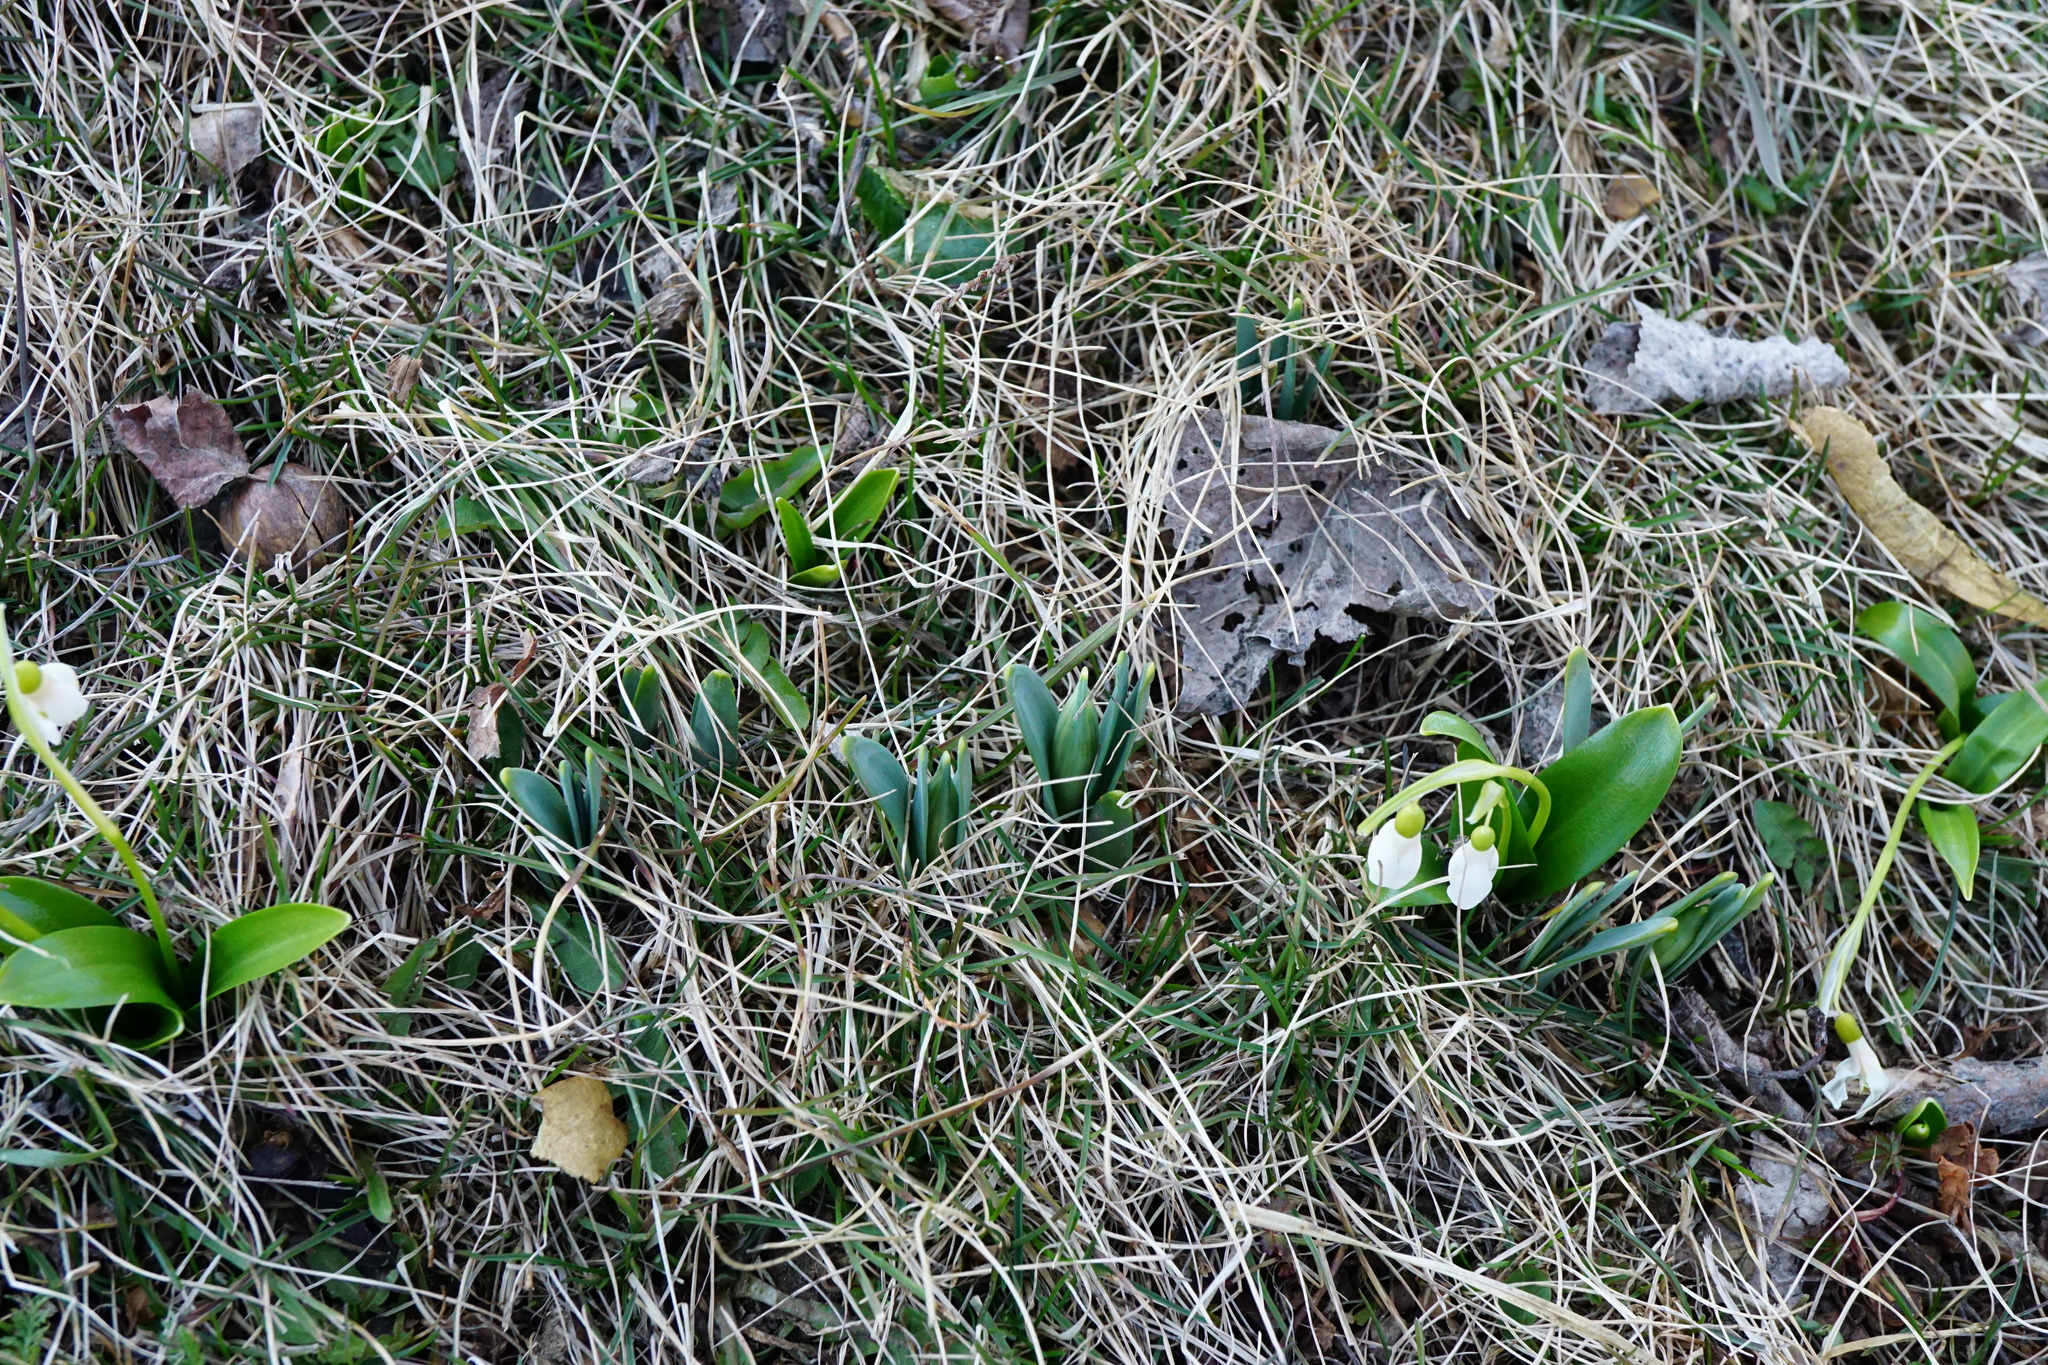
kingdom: Plantae
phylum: Tracheophyta
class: Liliopsida
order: Asparagales
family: Amaryllidaceae
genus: Narcissus
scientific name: Narcissus
